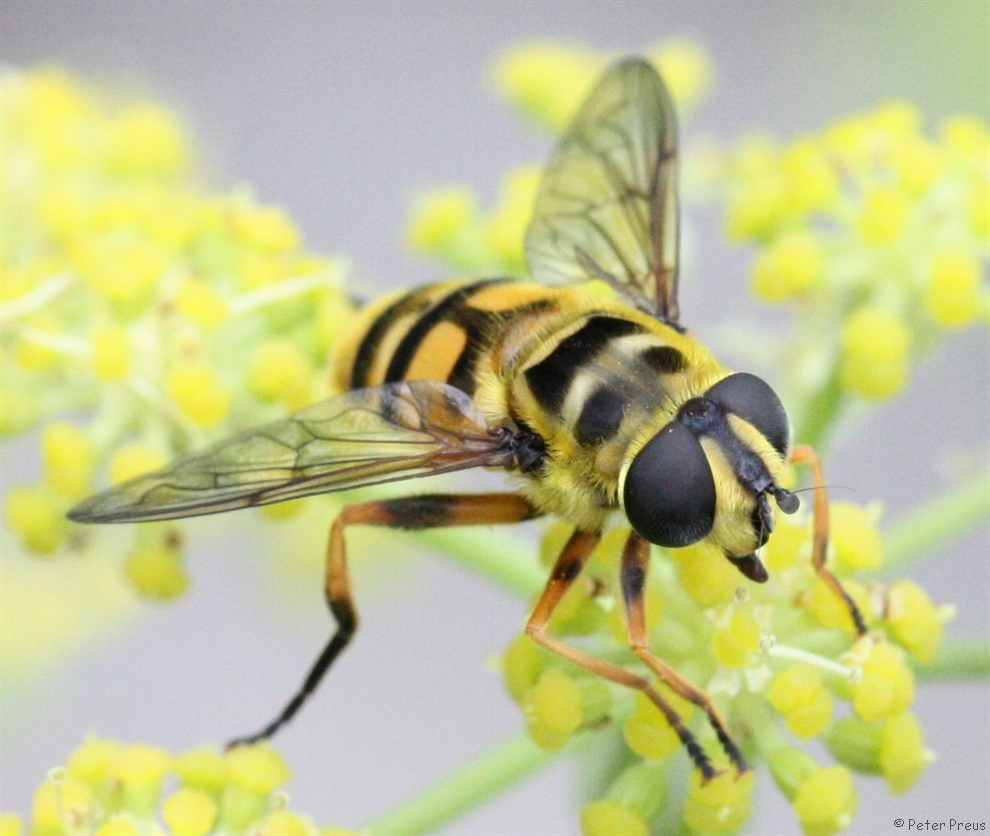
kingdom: Animalia
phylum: Arthropoda
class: Insecta
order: Diptera
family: Syrphidae
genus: Myathropa
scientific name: Myathropa florea
